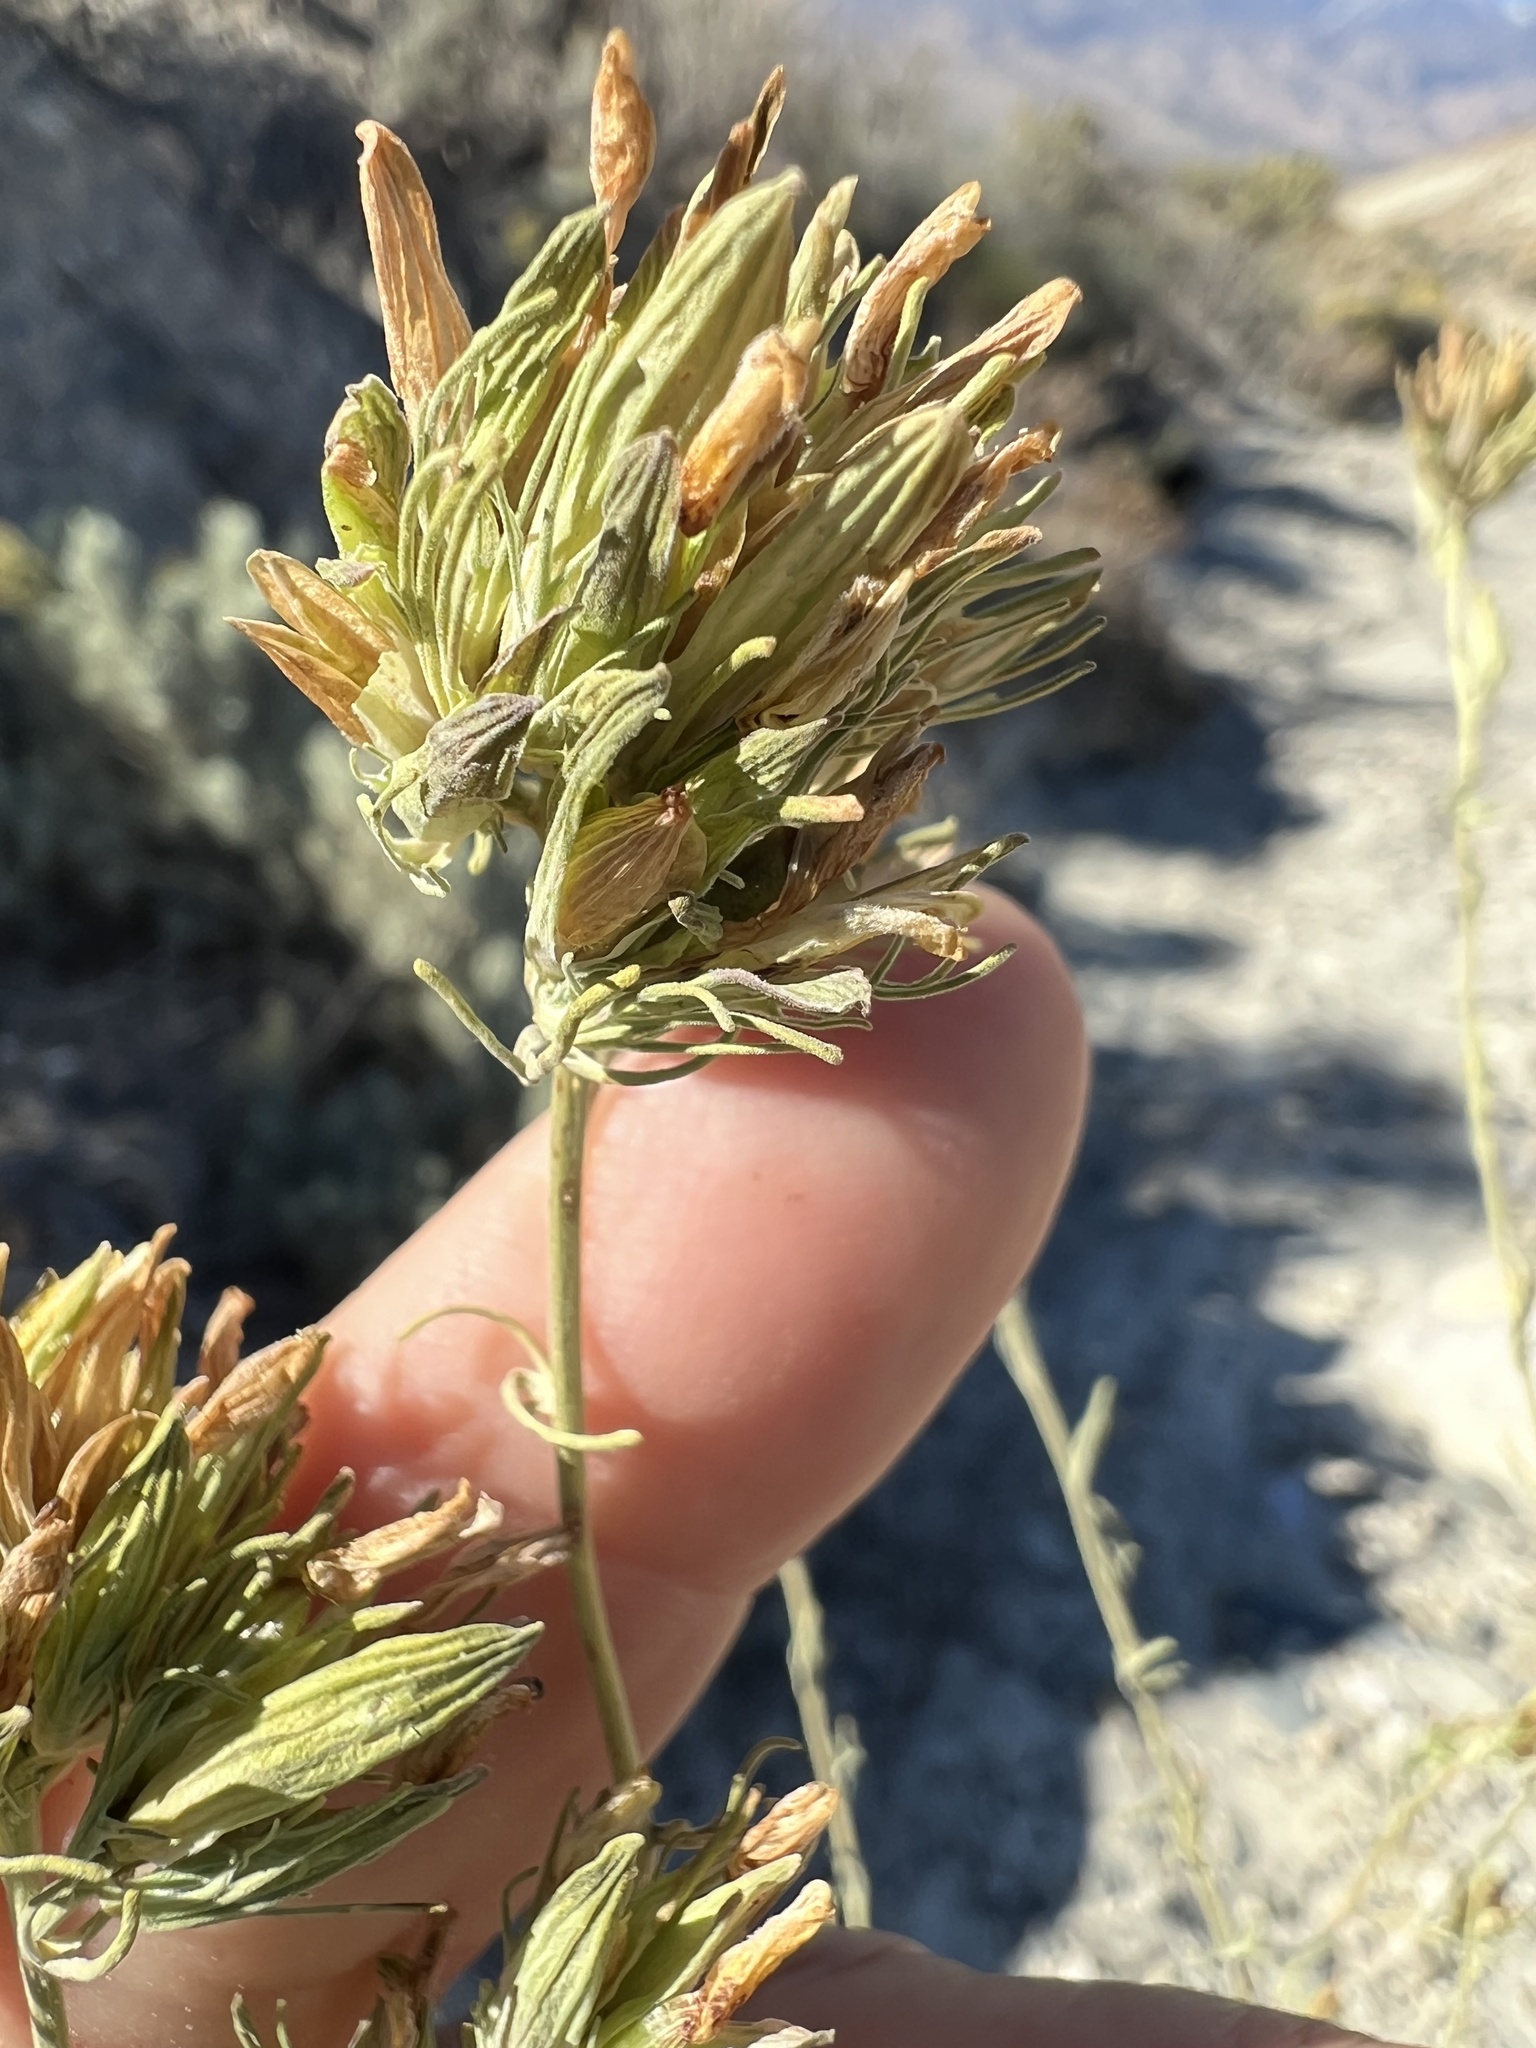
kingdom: Plantae
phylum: Tracheophyta
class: Magnoliopsida
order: Lamiales
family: Orobanchaceae
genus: Cordylanthus
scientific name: Cordylanthus ramosus
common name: Much-branched bird's-beak
